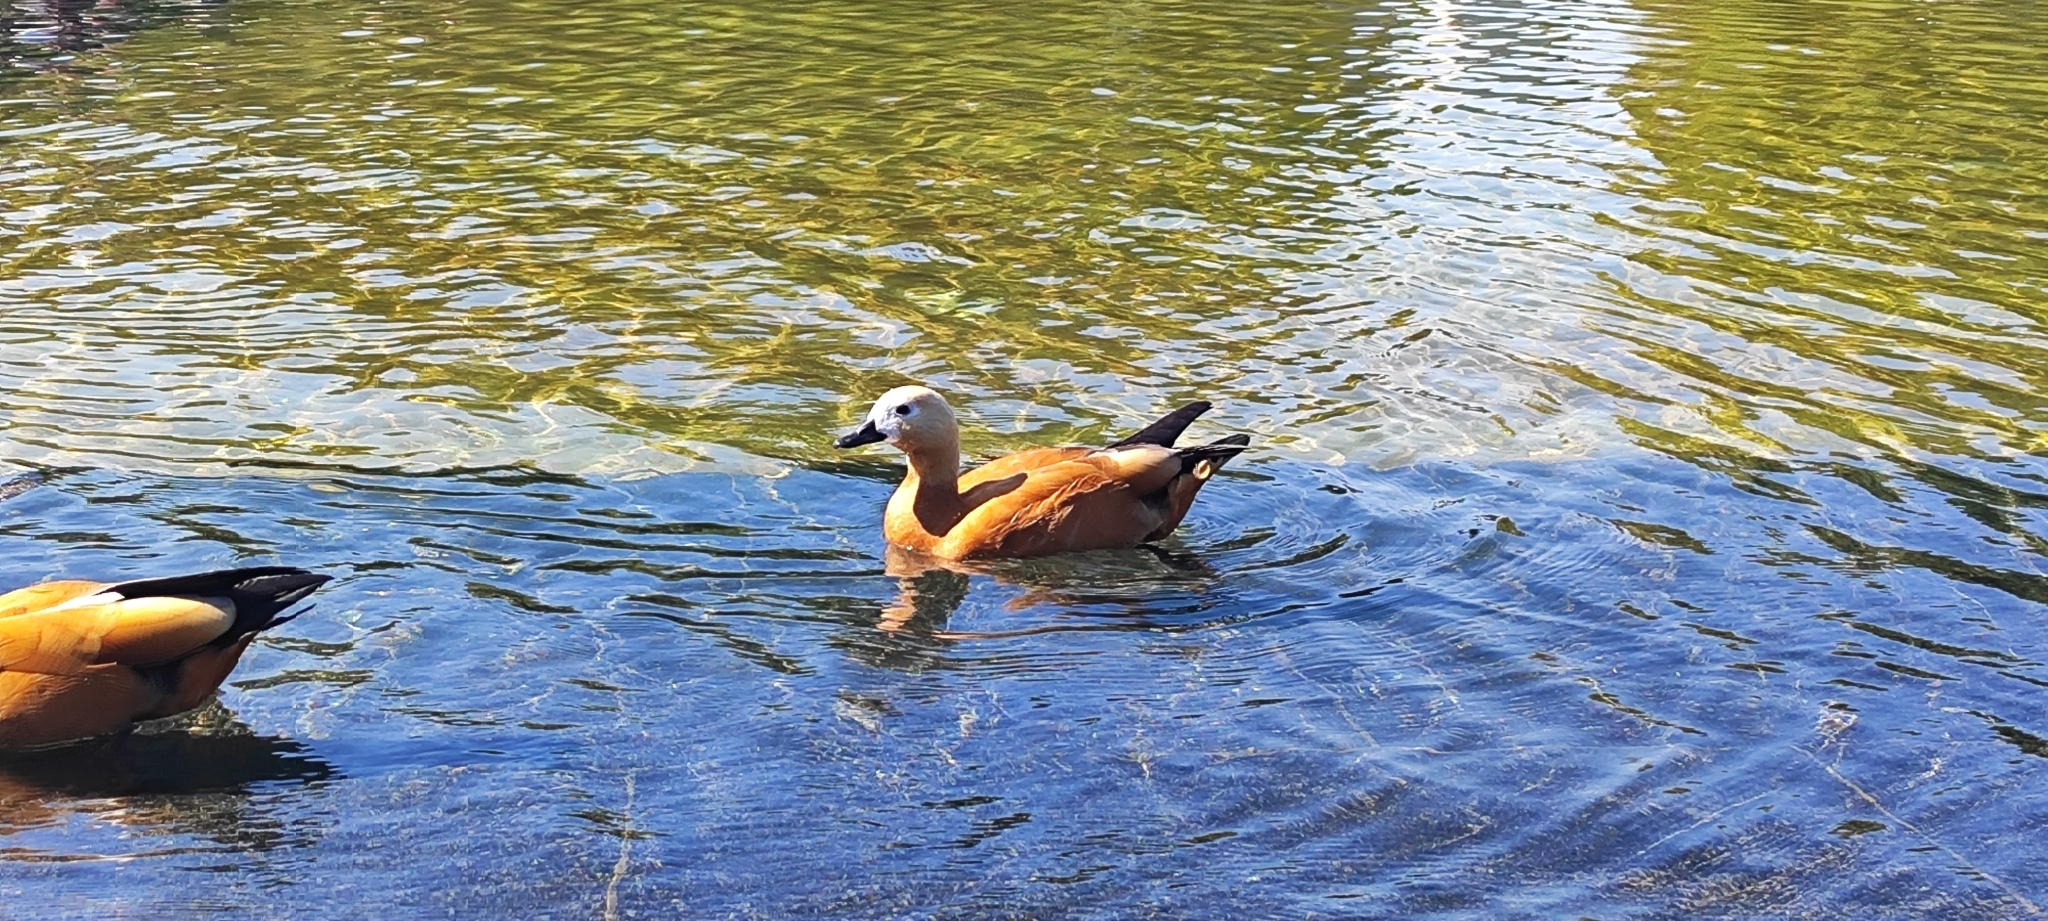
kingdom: Animalia
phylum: Chordata
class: Aves
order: Anseriformes
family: Anatidae
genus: Tadorna
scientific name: Tadorna ferruginea
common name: Ruddy shelduck
